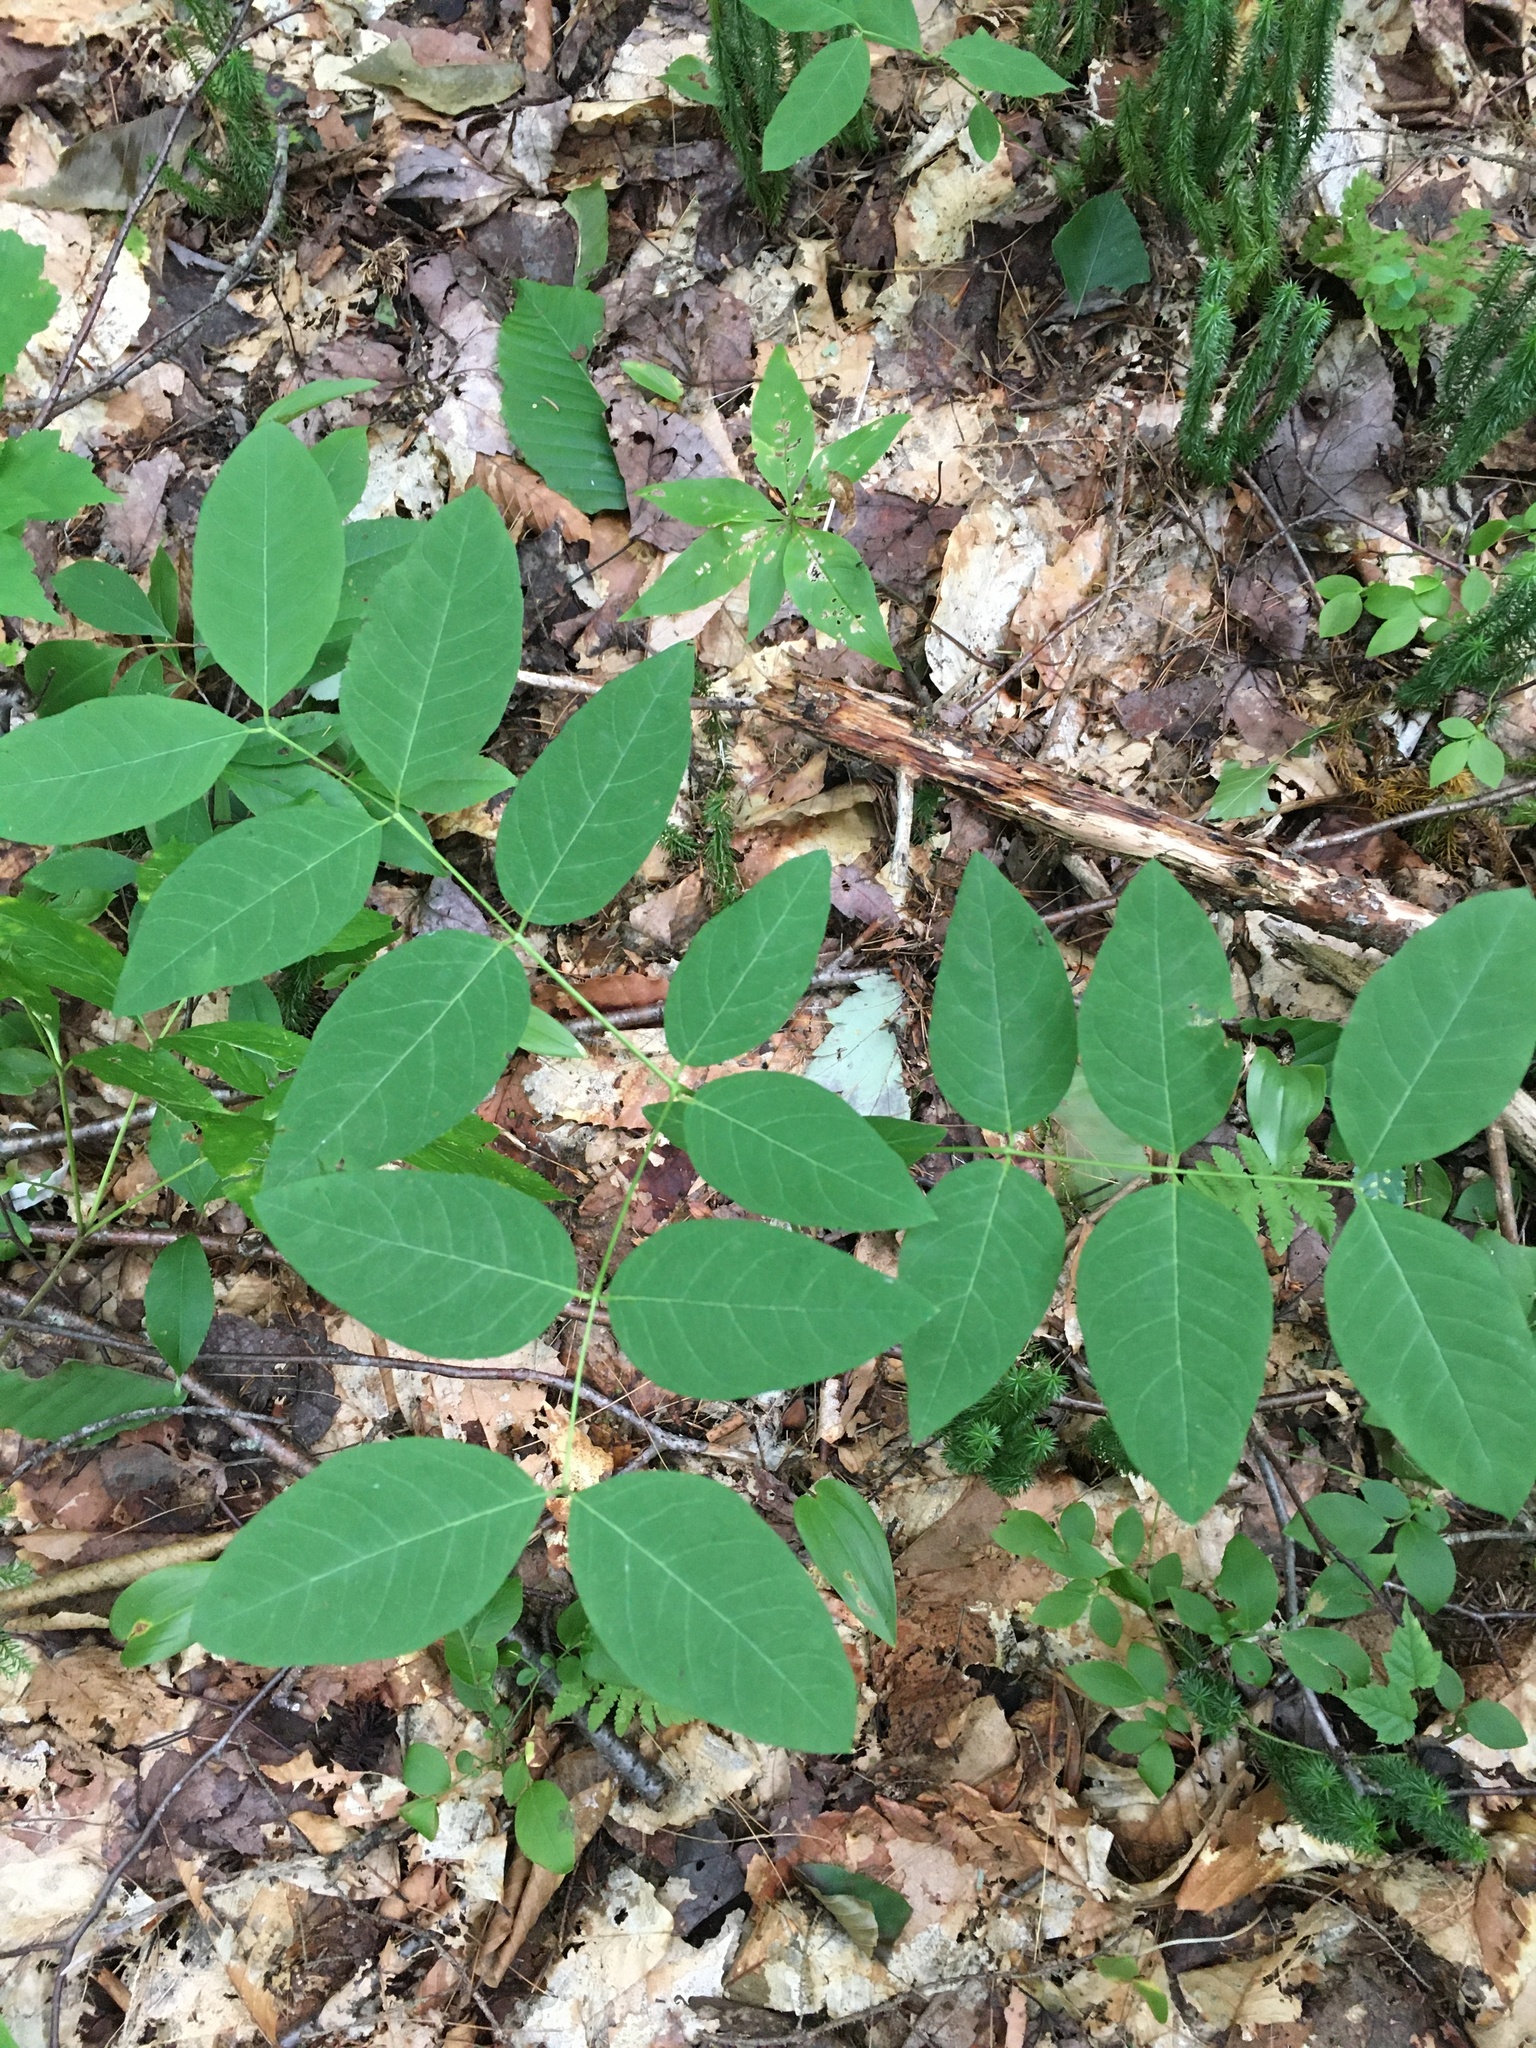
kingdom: Plantae
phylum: Tracheophyta
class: Magnoliopsida
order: Gentianales
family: Apocynaceae
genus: Apocynum
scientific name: Apocynum androsaemifolium
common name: Spreading dogbane
